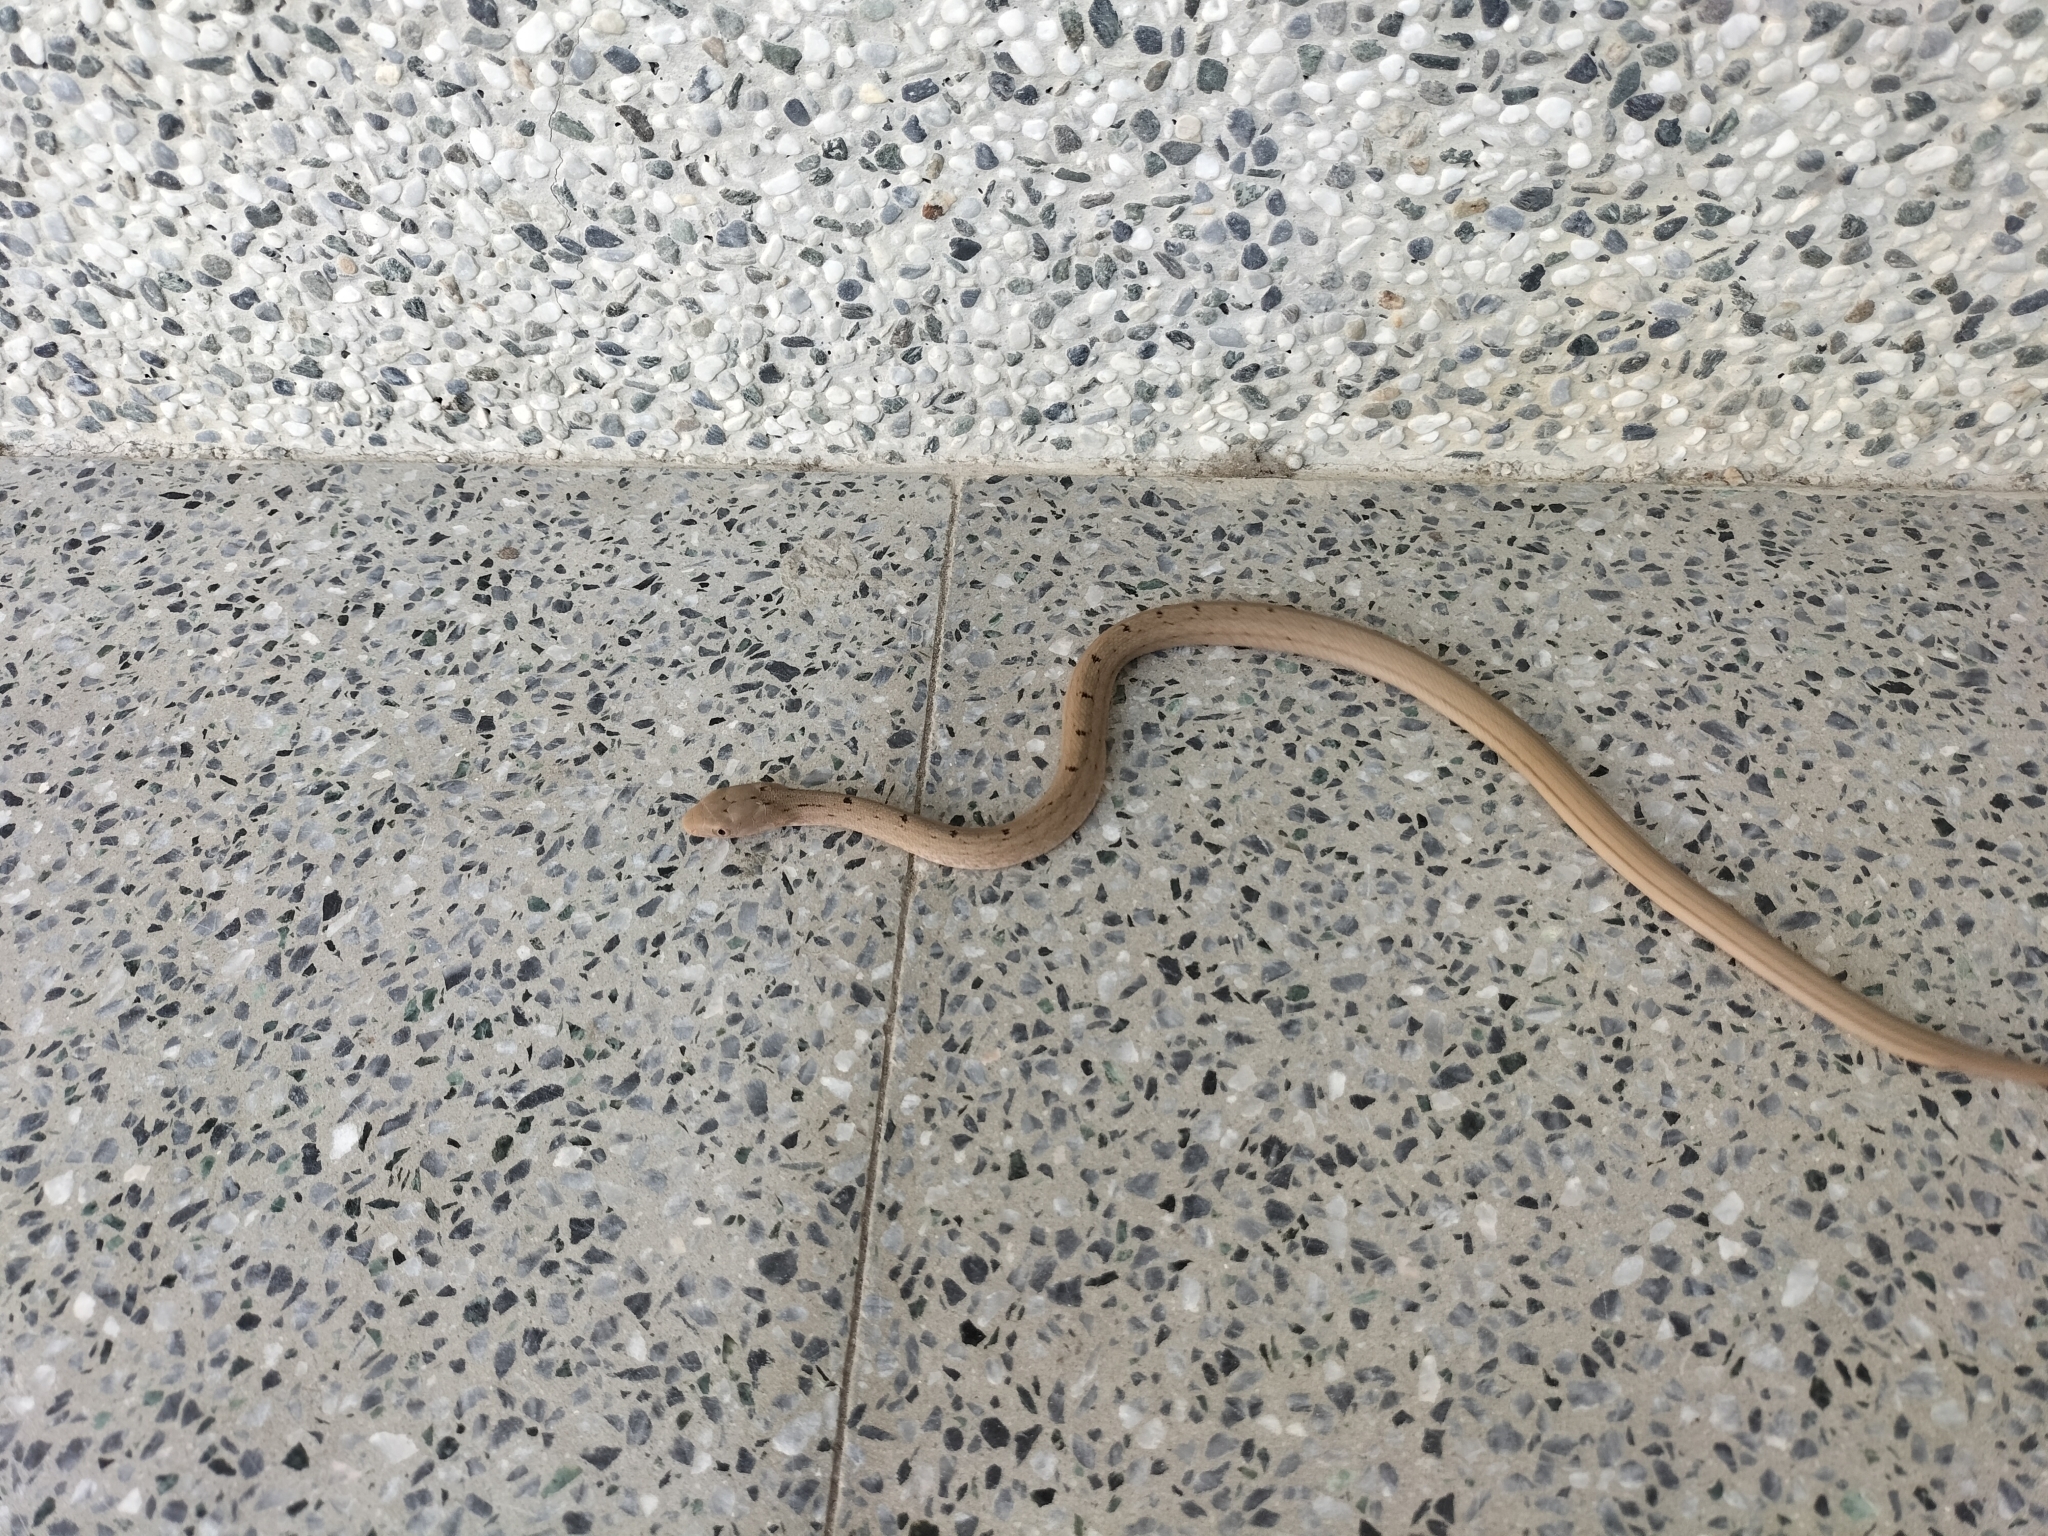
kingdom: Animalia
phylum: Chordata
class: Squamata
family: Colubridae
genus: Elaphe
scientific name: Elaphe carinata
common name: Taiwan stink snake
